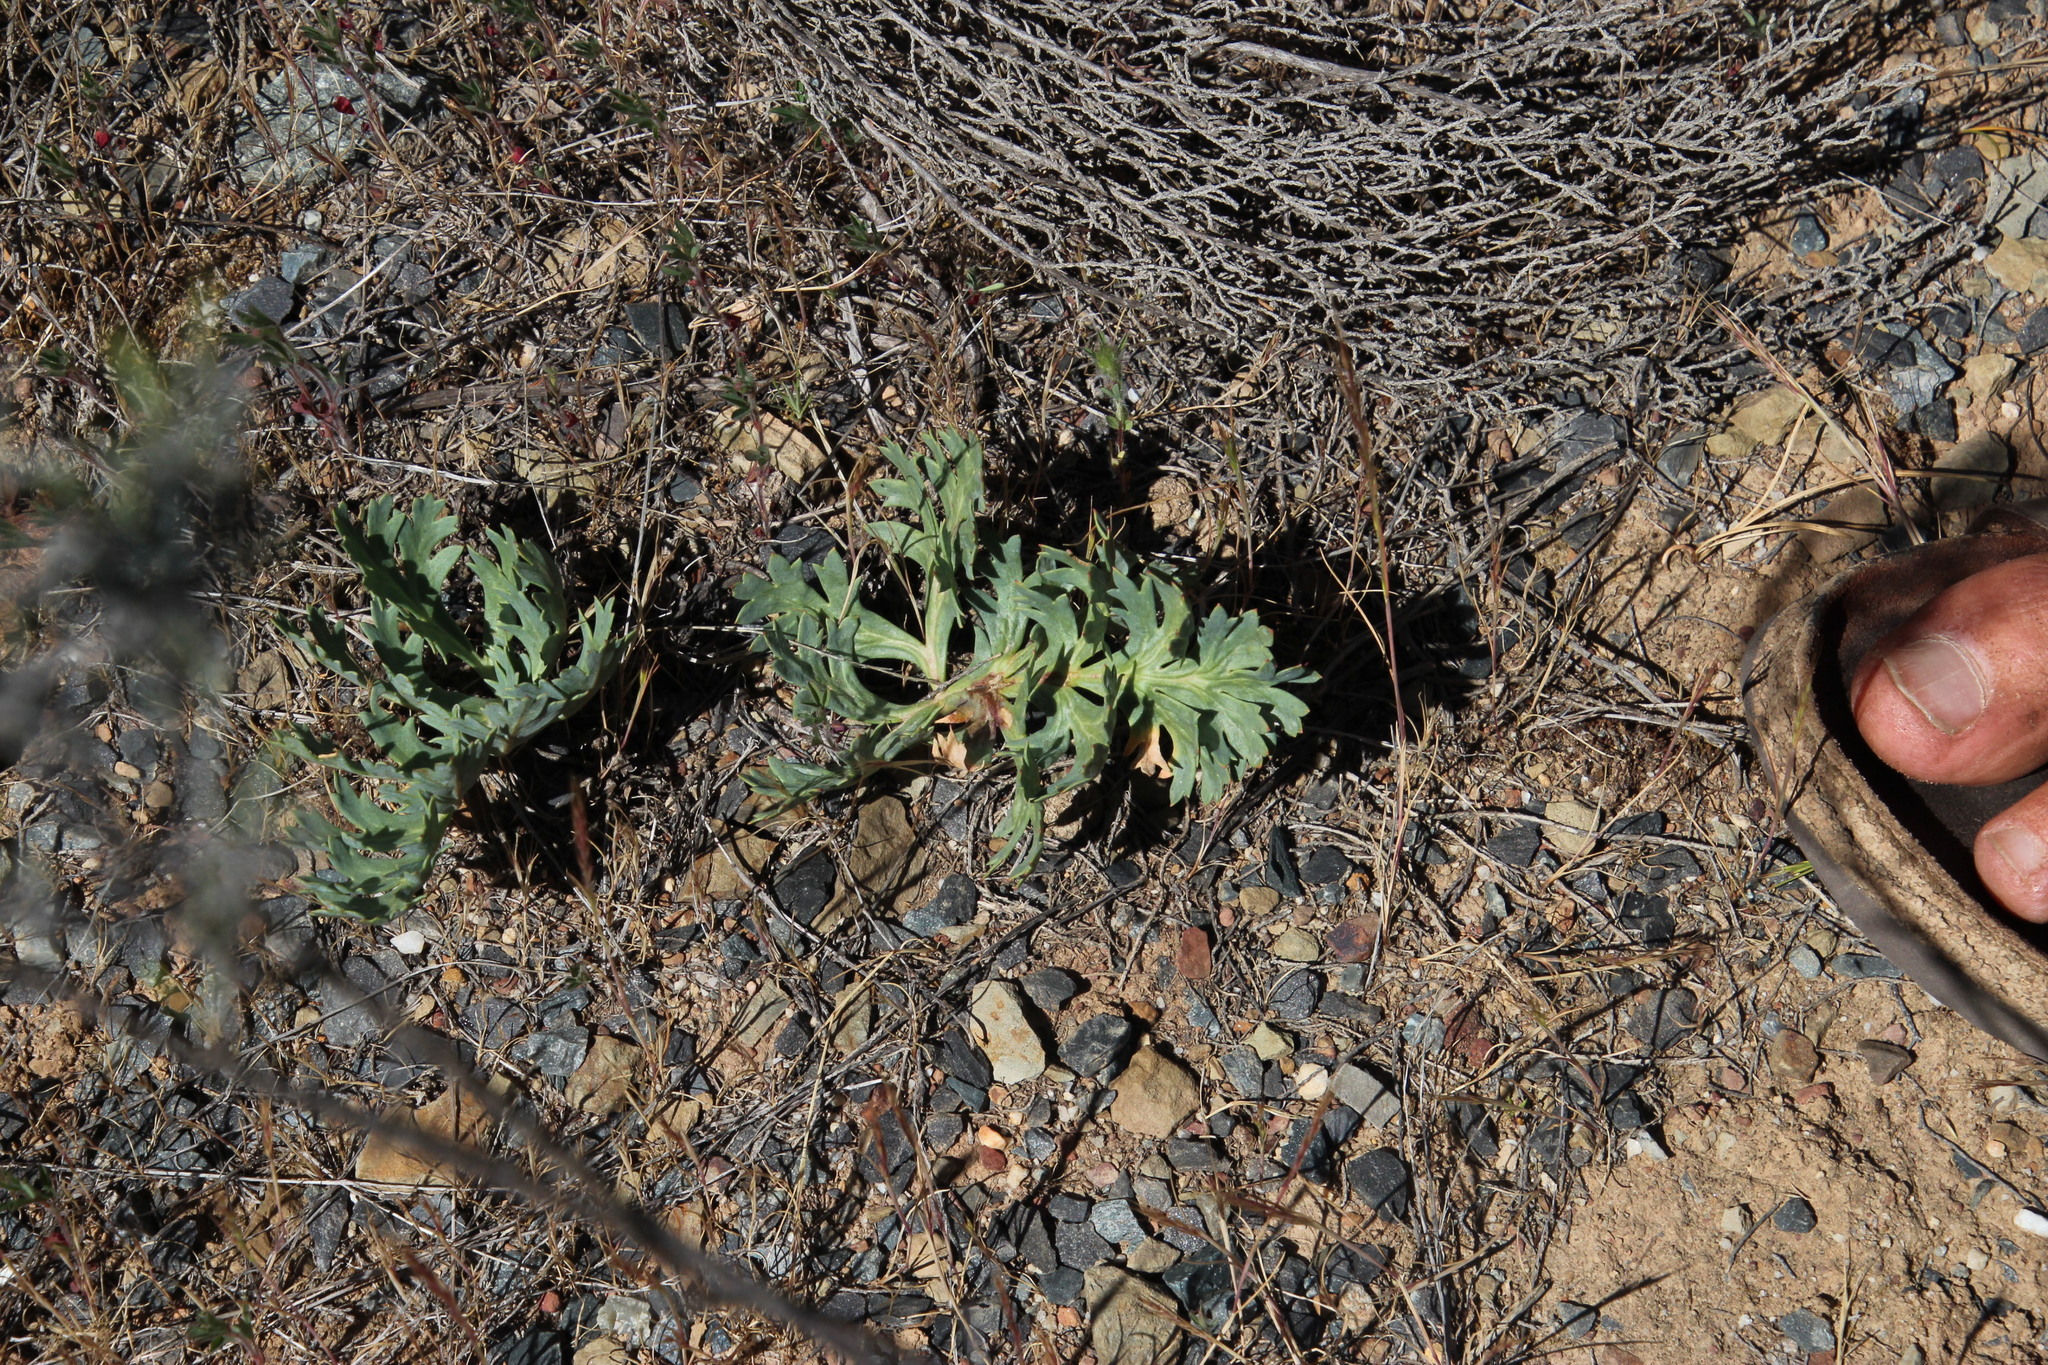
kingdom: Plantae
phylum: Tracheophyta
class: Magnoliopsida
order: Geraniales
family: Geraniaceae
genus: Pelargonium
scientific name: Pelargonium pillansii
